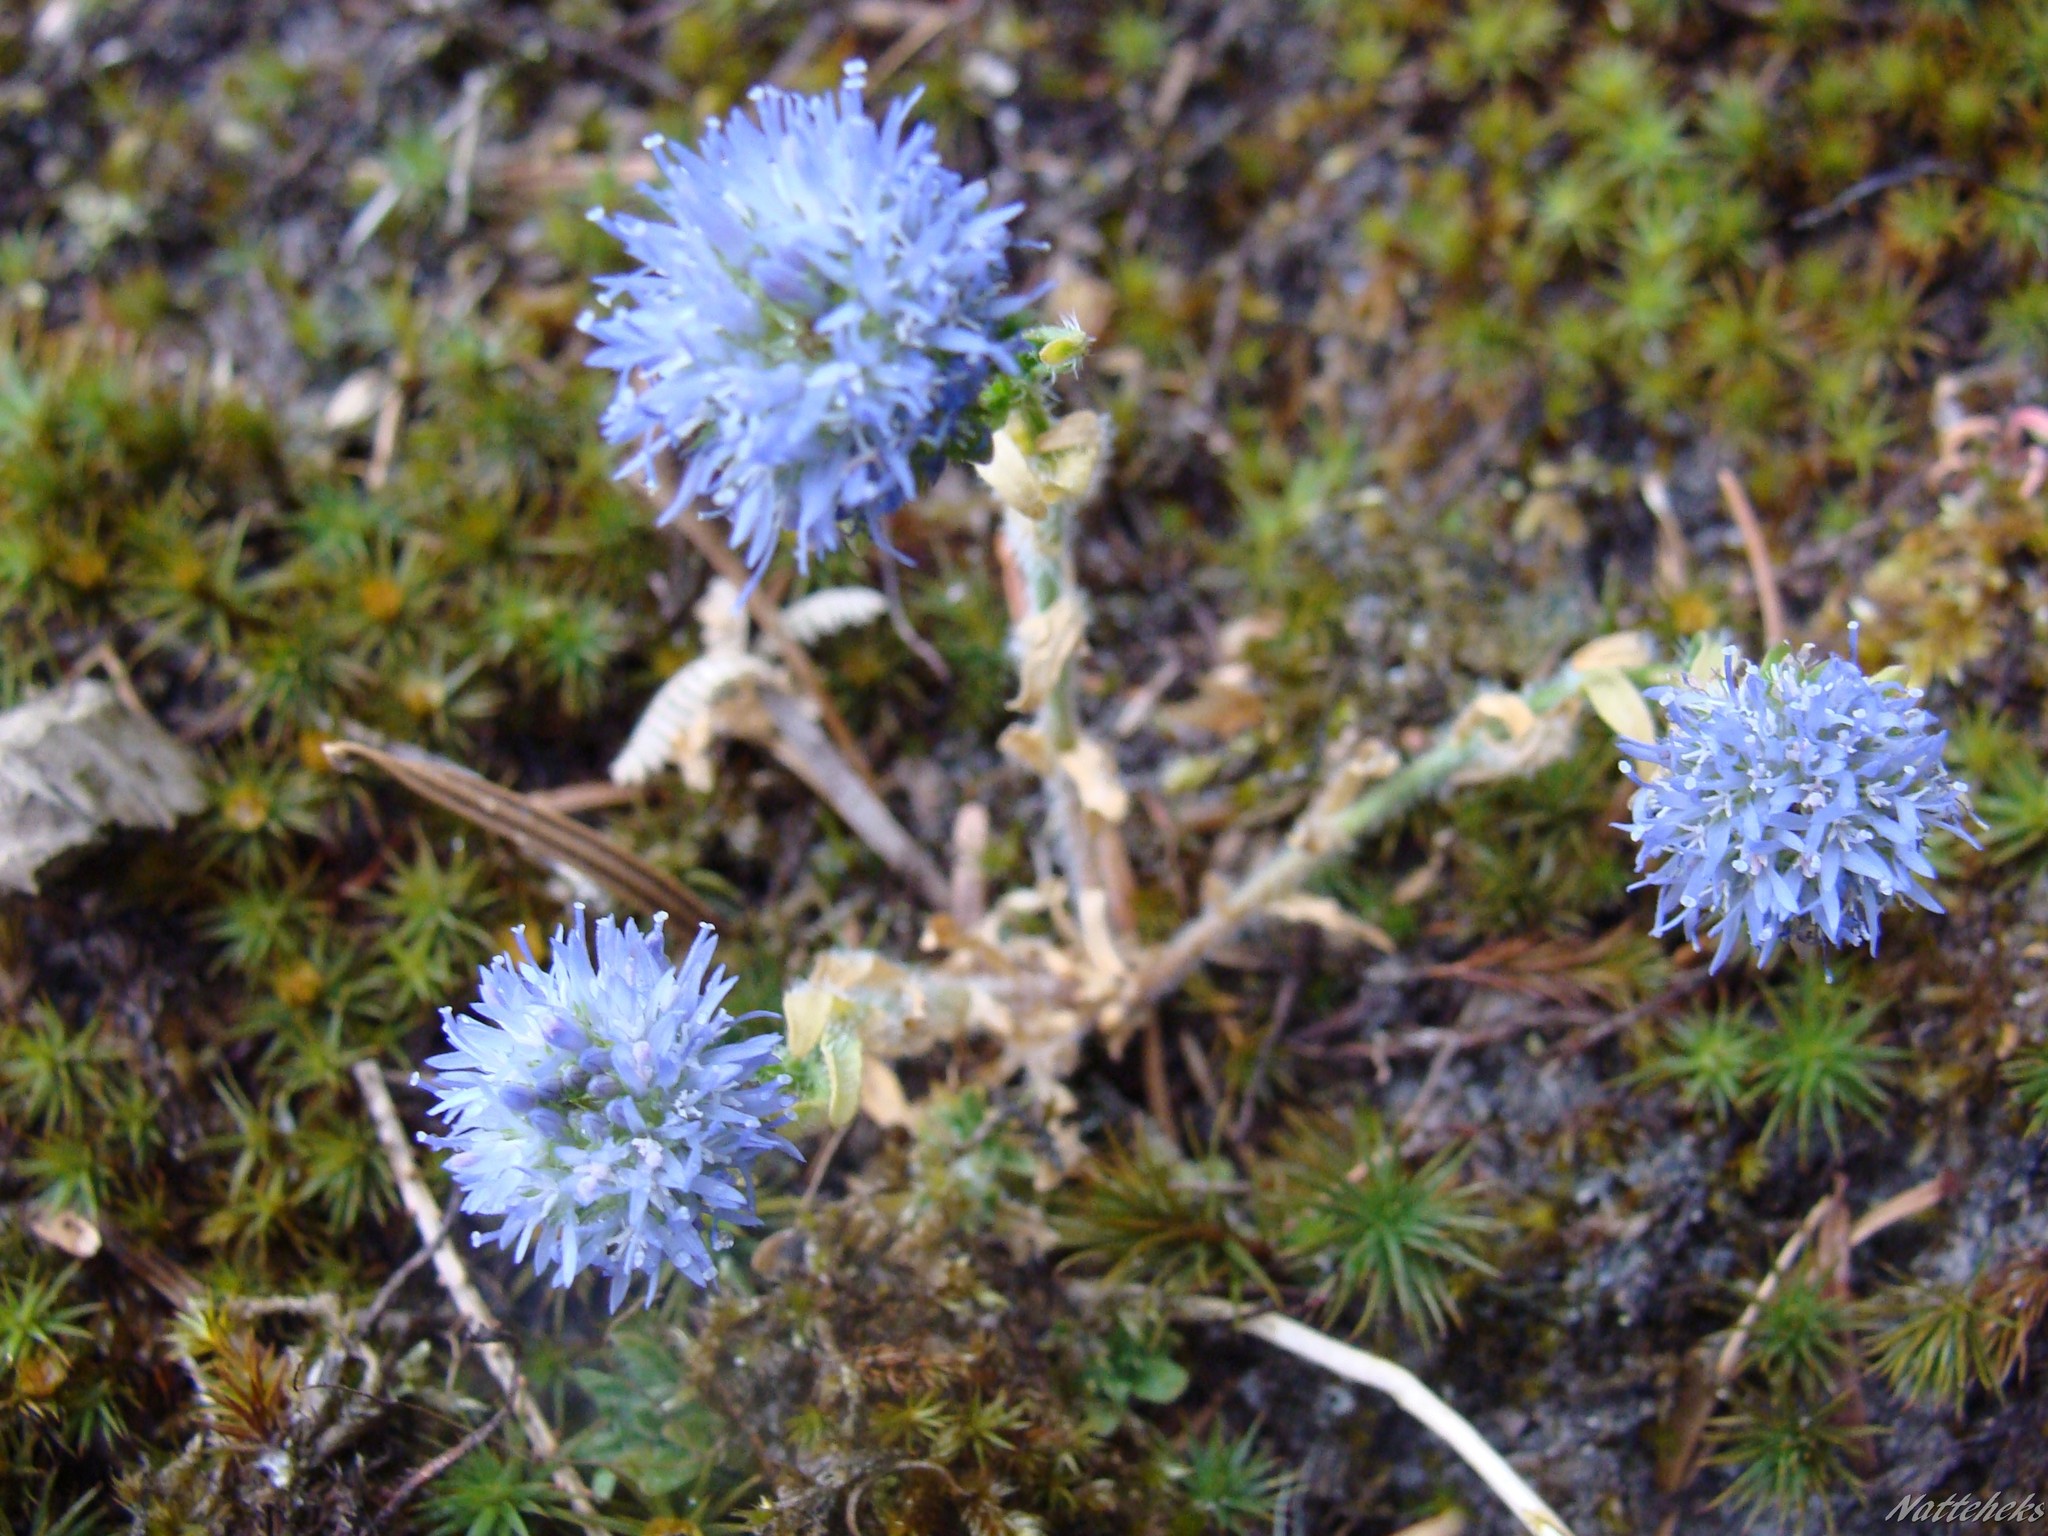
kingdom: Plantae
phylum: Tracheophyta
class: Magnoliopsida
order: Asterales
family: Campanulaceae
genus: Jasione
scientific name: Jasione montana
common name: Sheep's-bit
